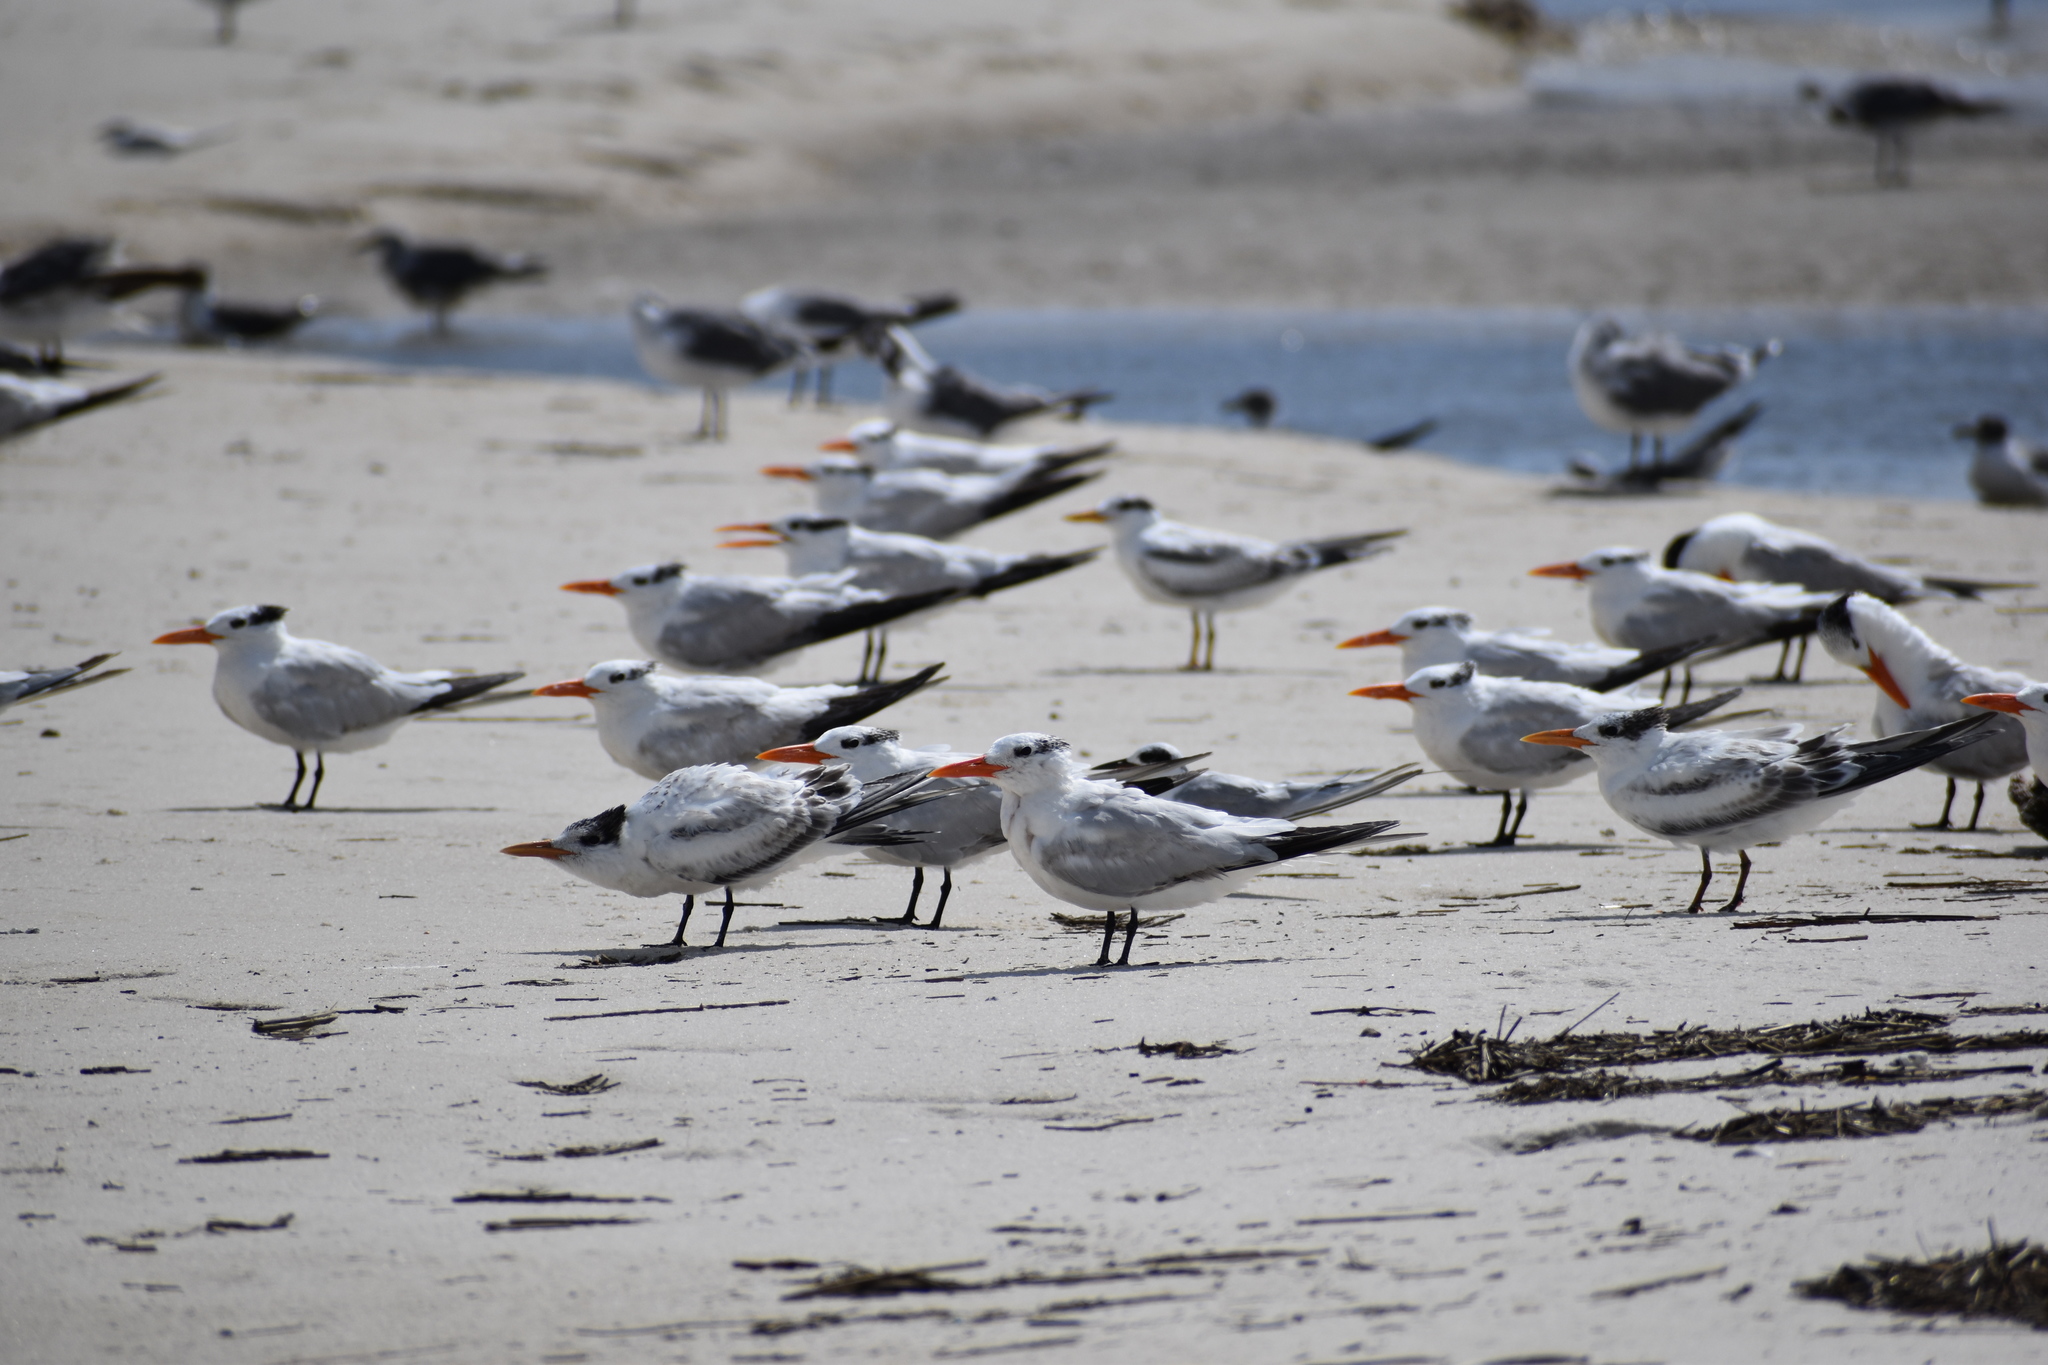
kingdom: Animalia
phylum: Chordata
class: Aves
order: Charadriiformes
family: Laridae
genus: Thalasseus
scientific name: Thalasseus maximus
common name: Royal tern
